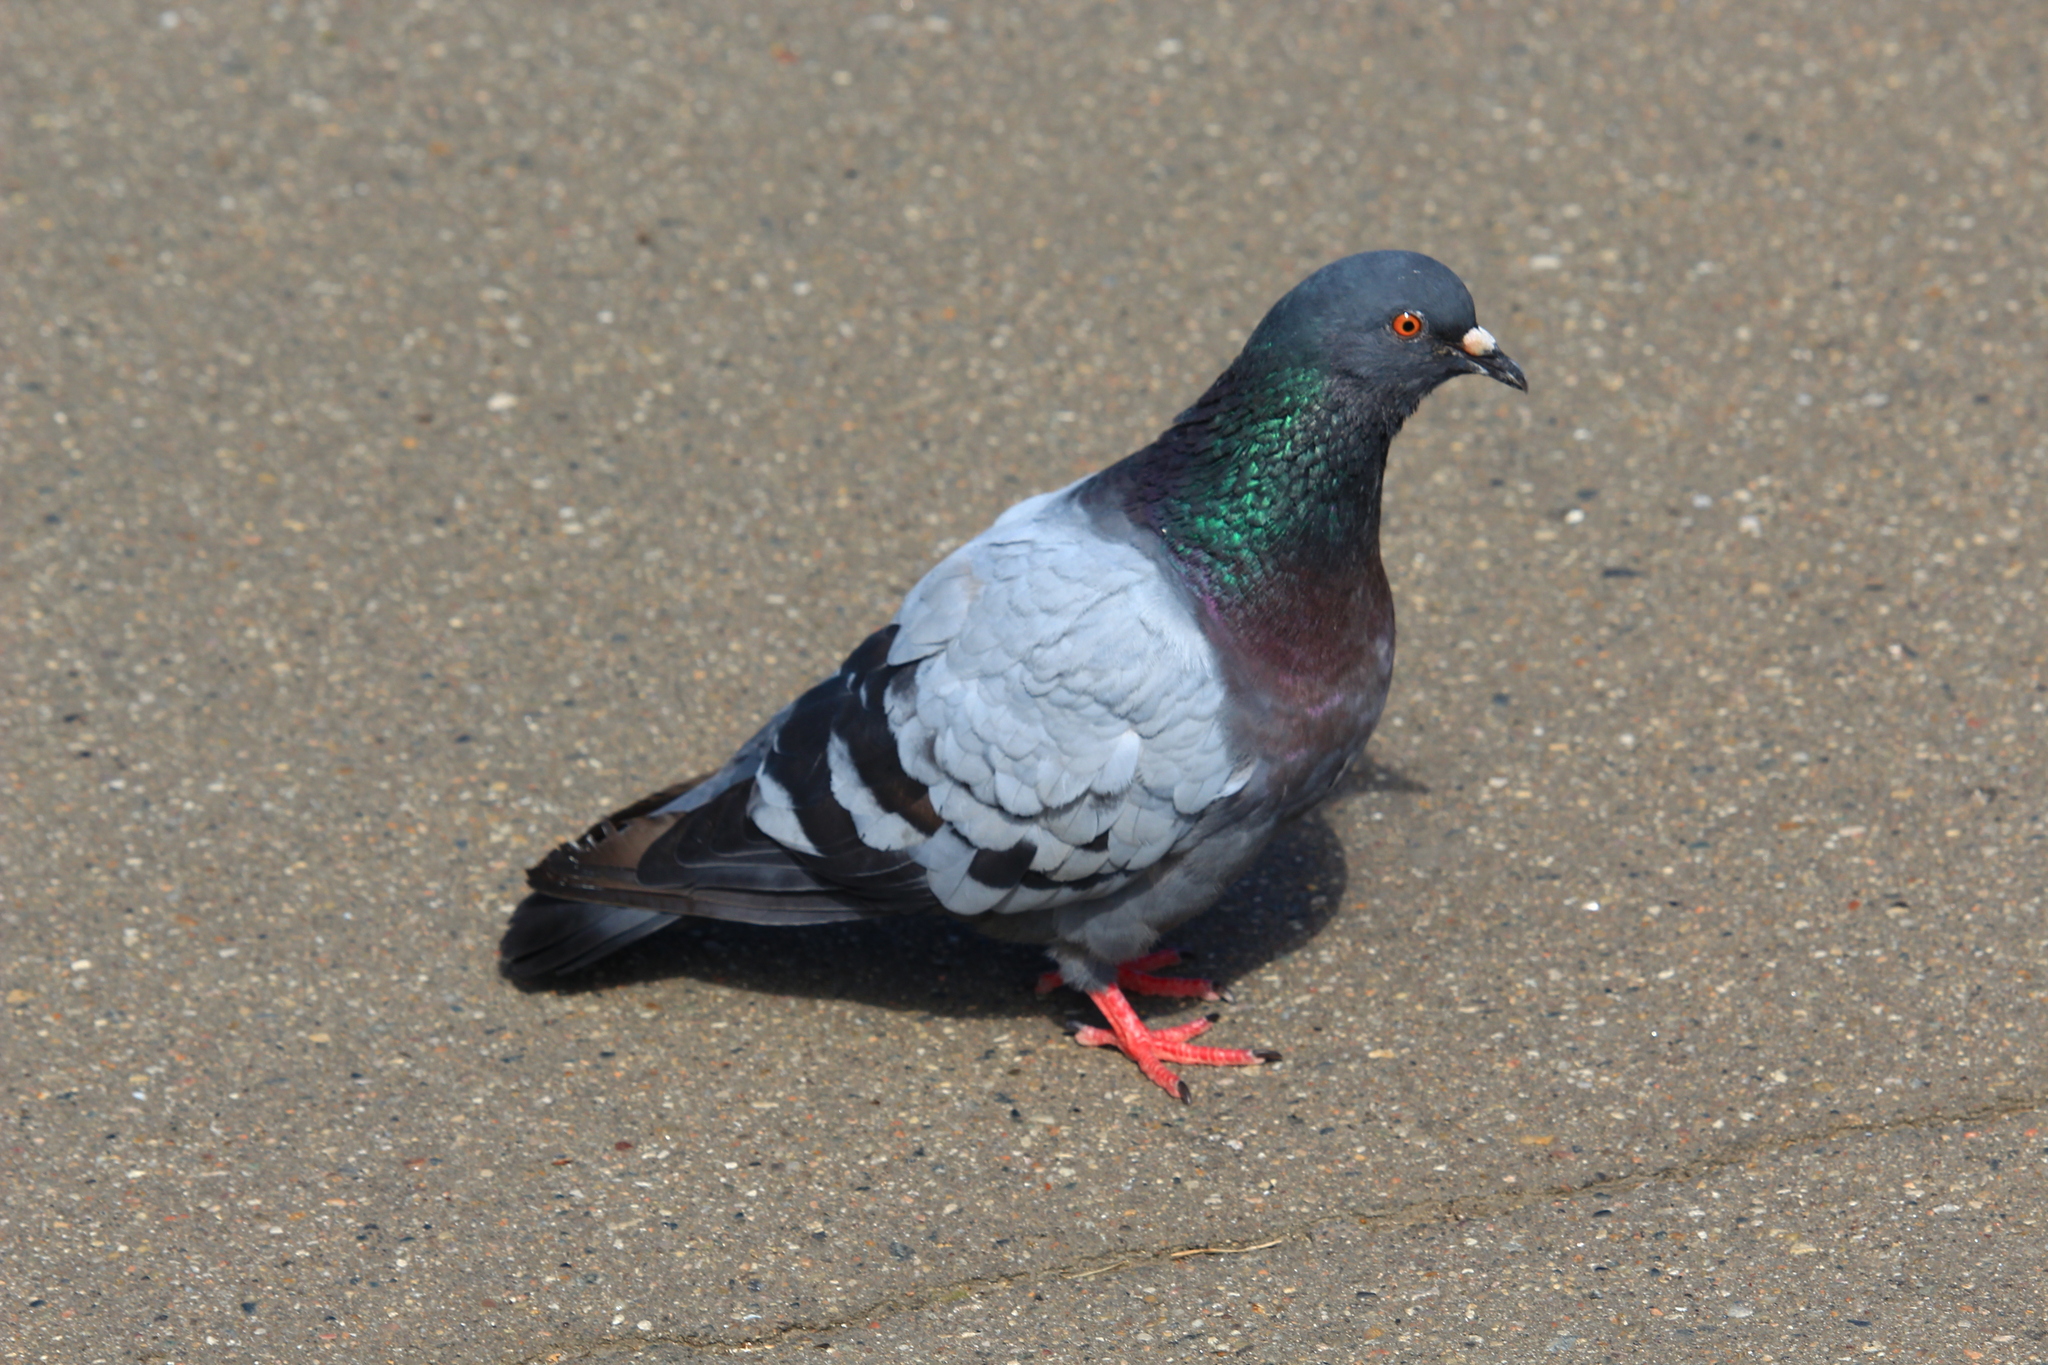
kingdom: Animalia
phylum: Chordata
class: Aves
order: Columbiformes
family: Columbidae
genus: Columba
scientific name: Columba livia
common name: Rock pigeon
